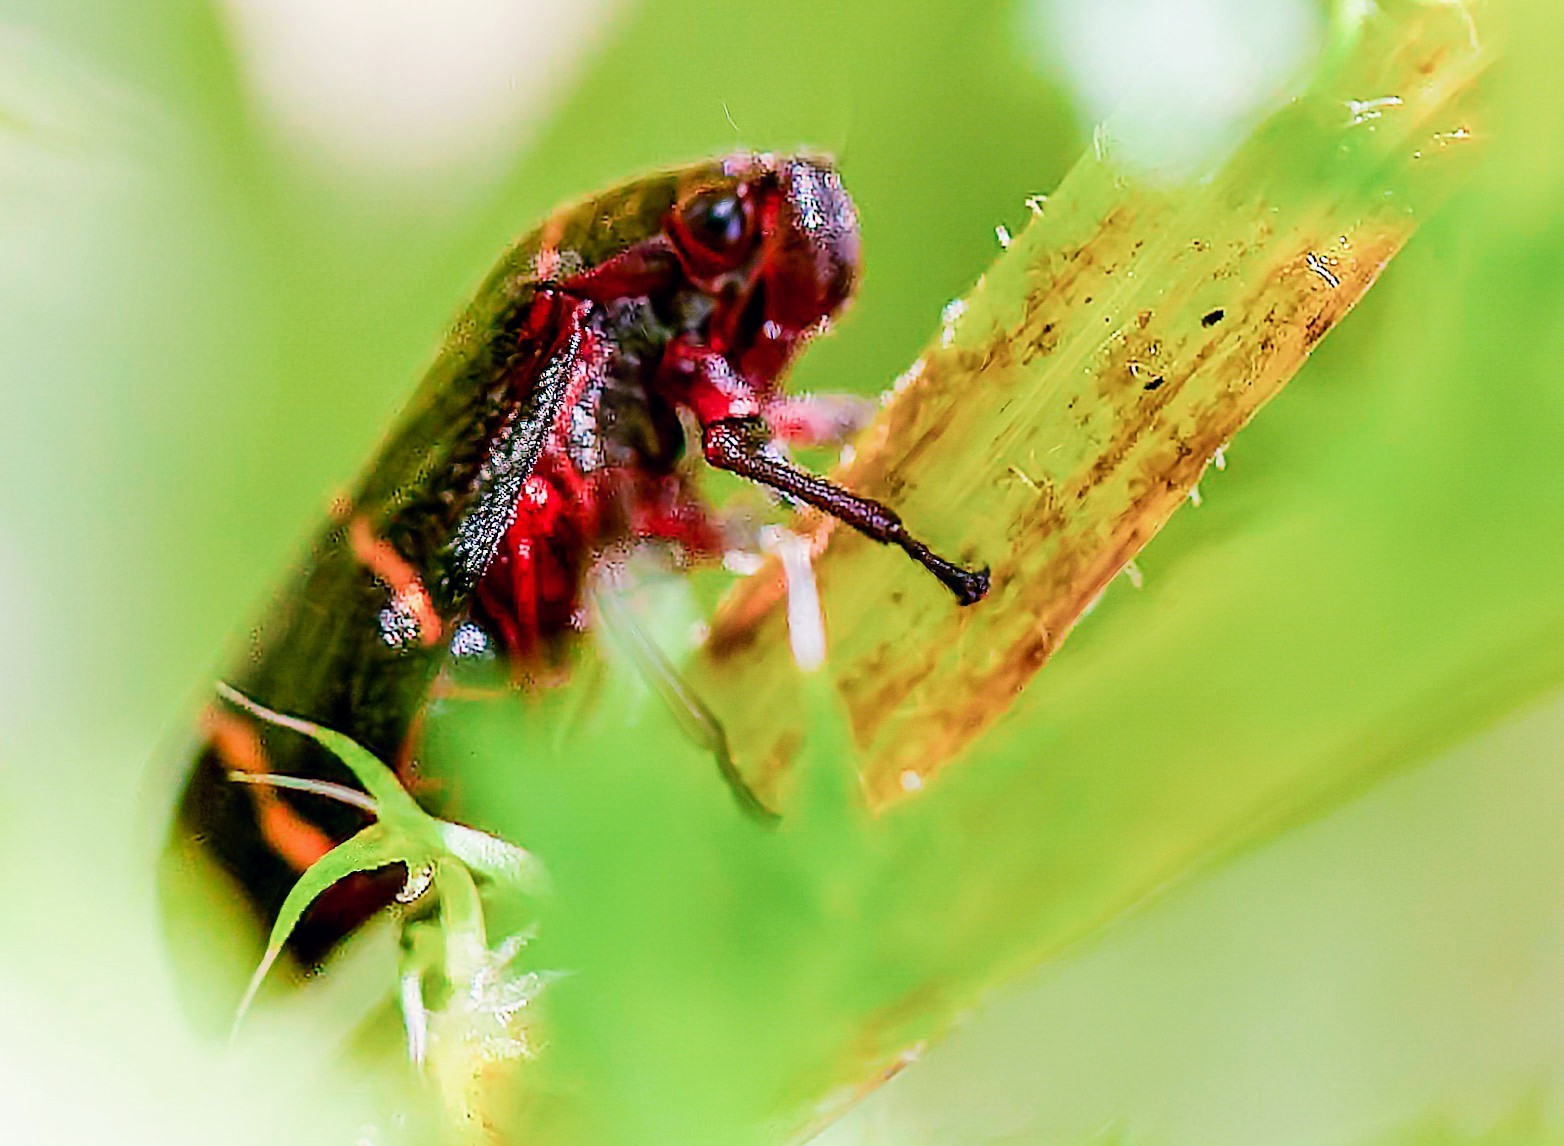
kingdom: Animalia
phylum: Arthropoda
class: Insecta
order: Hemiptera
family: Cercopidae
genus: Prosapia
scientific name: Prosapia bicincta
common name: Twolined spittlebug
